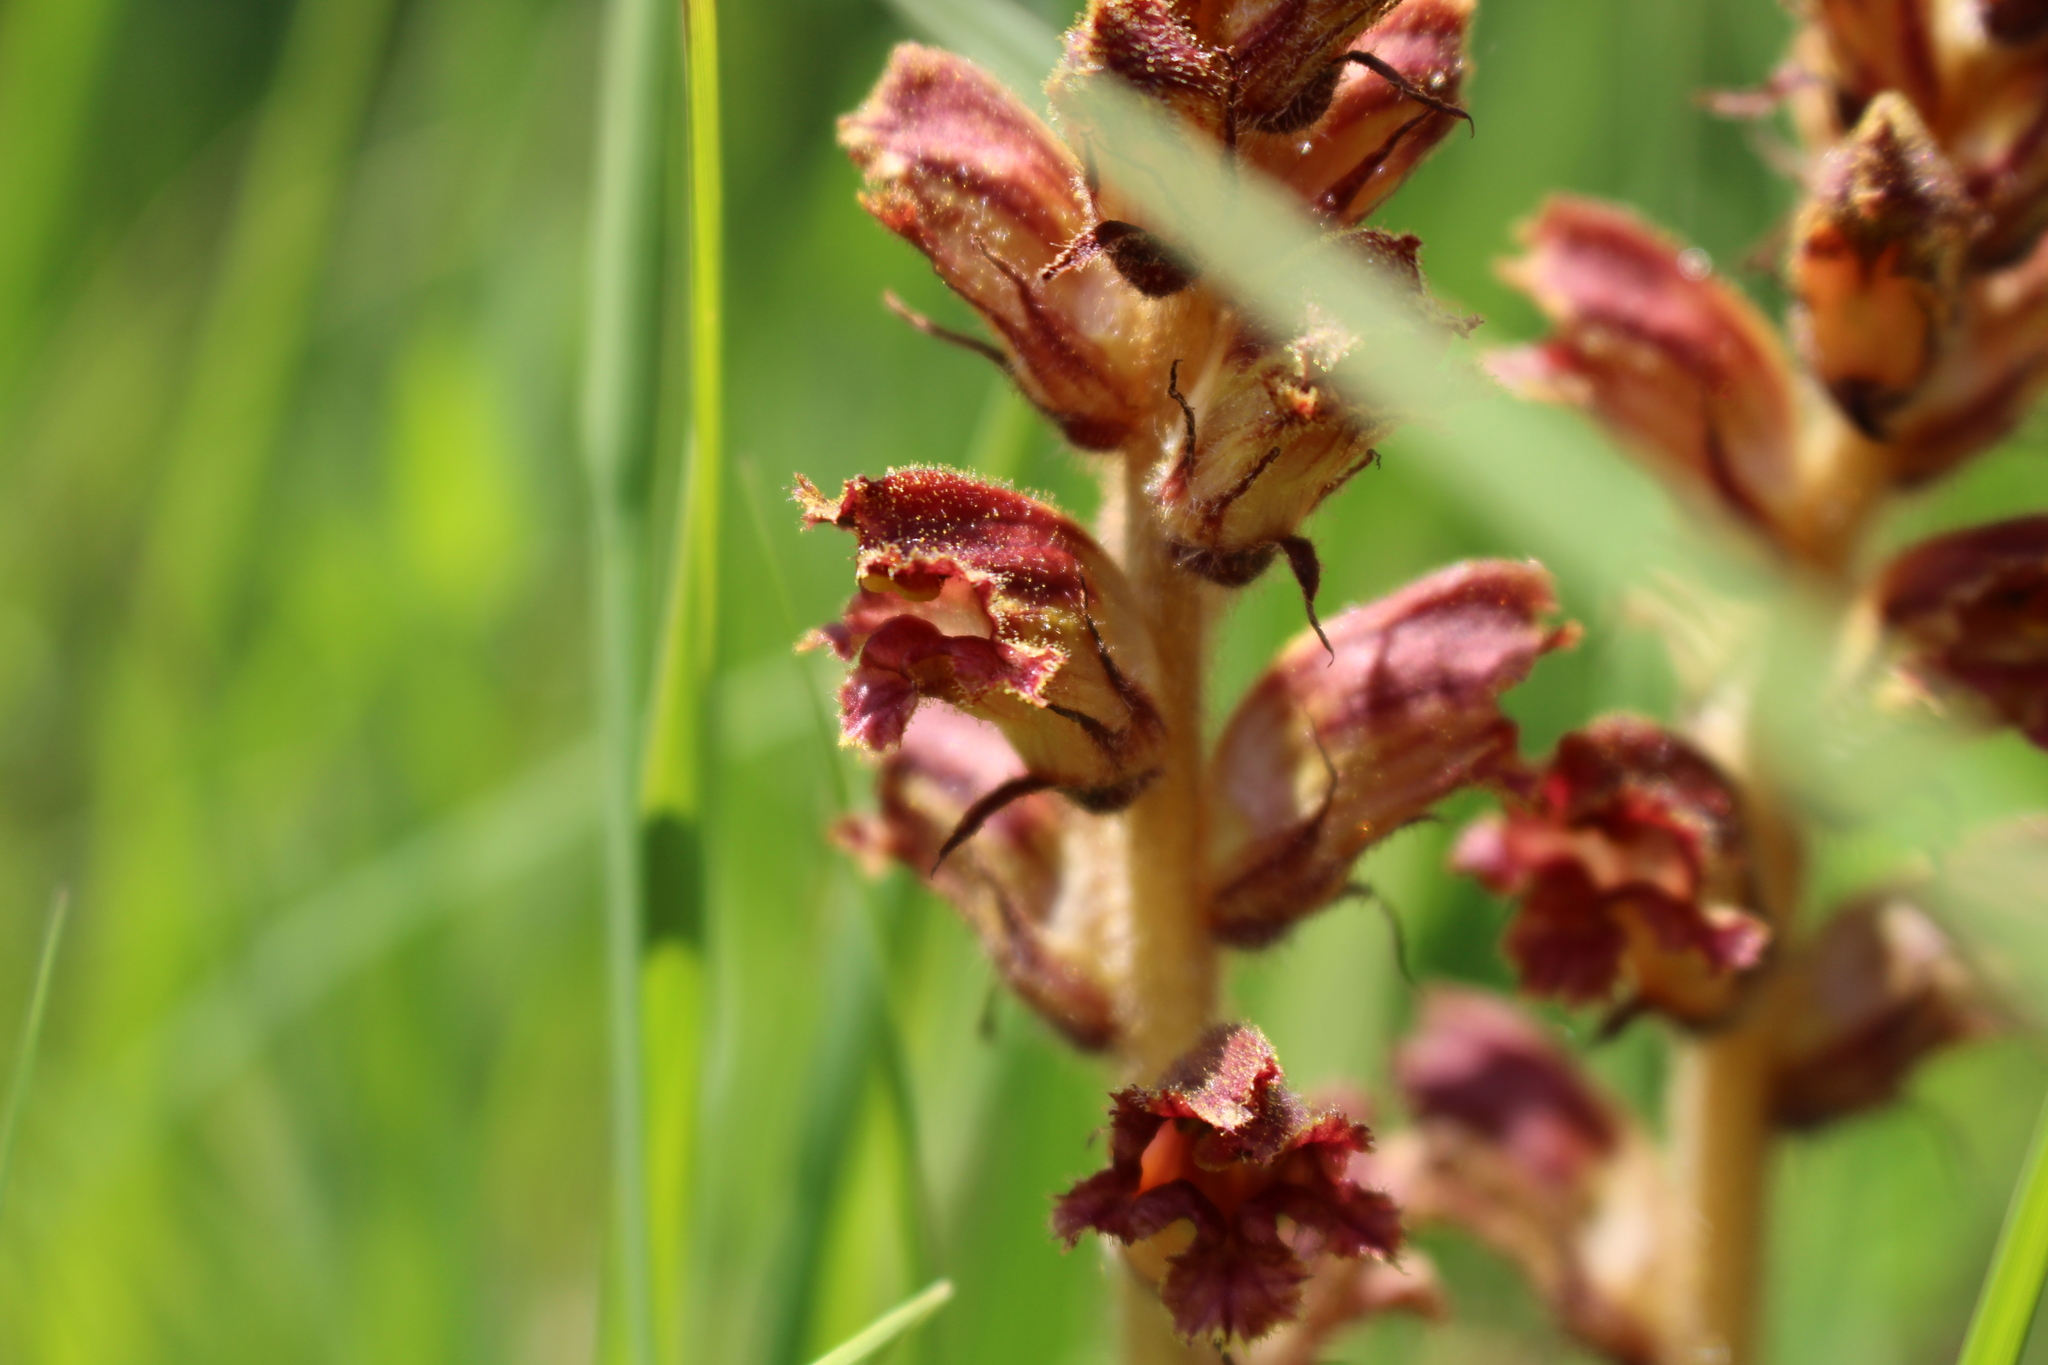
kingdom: Plantae
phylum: Tracheophyta
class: Magnoliopsida
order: Lamiales
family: Orobanchaceae
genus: Orobanche
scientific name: Orobanche gracilis
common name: Slender broomrape
